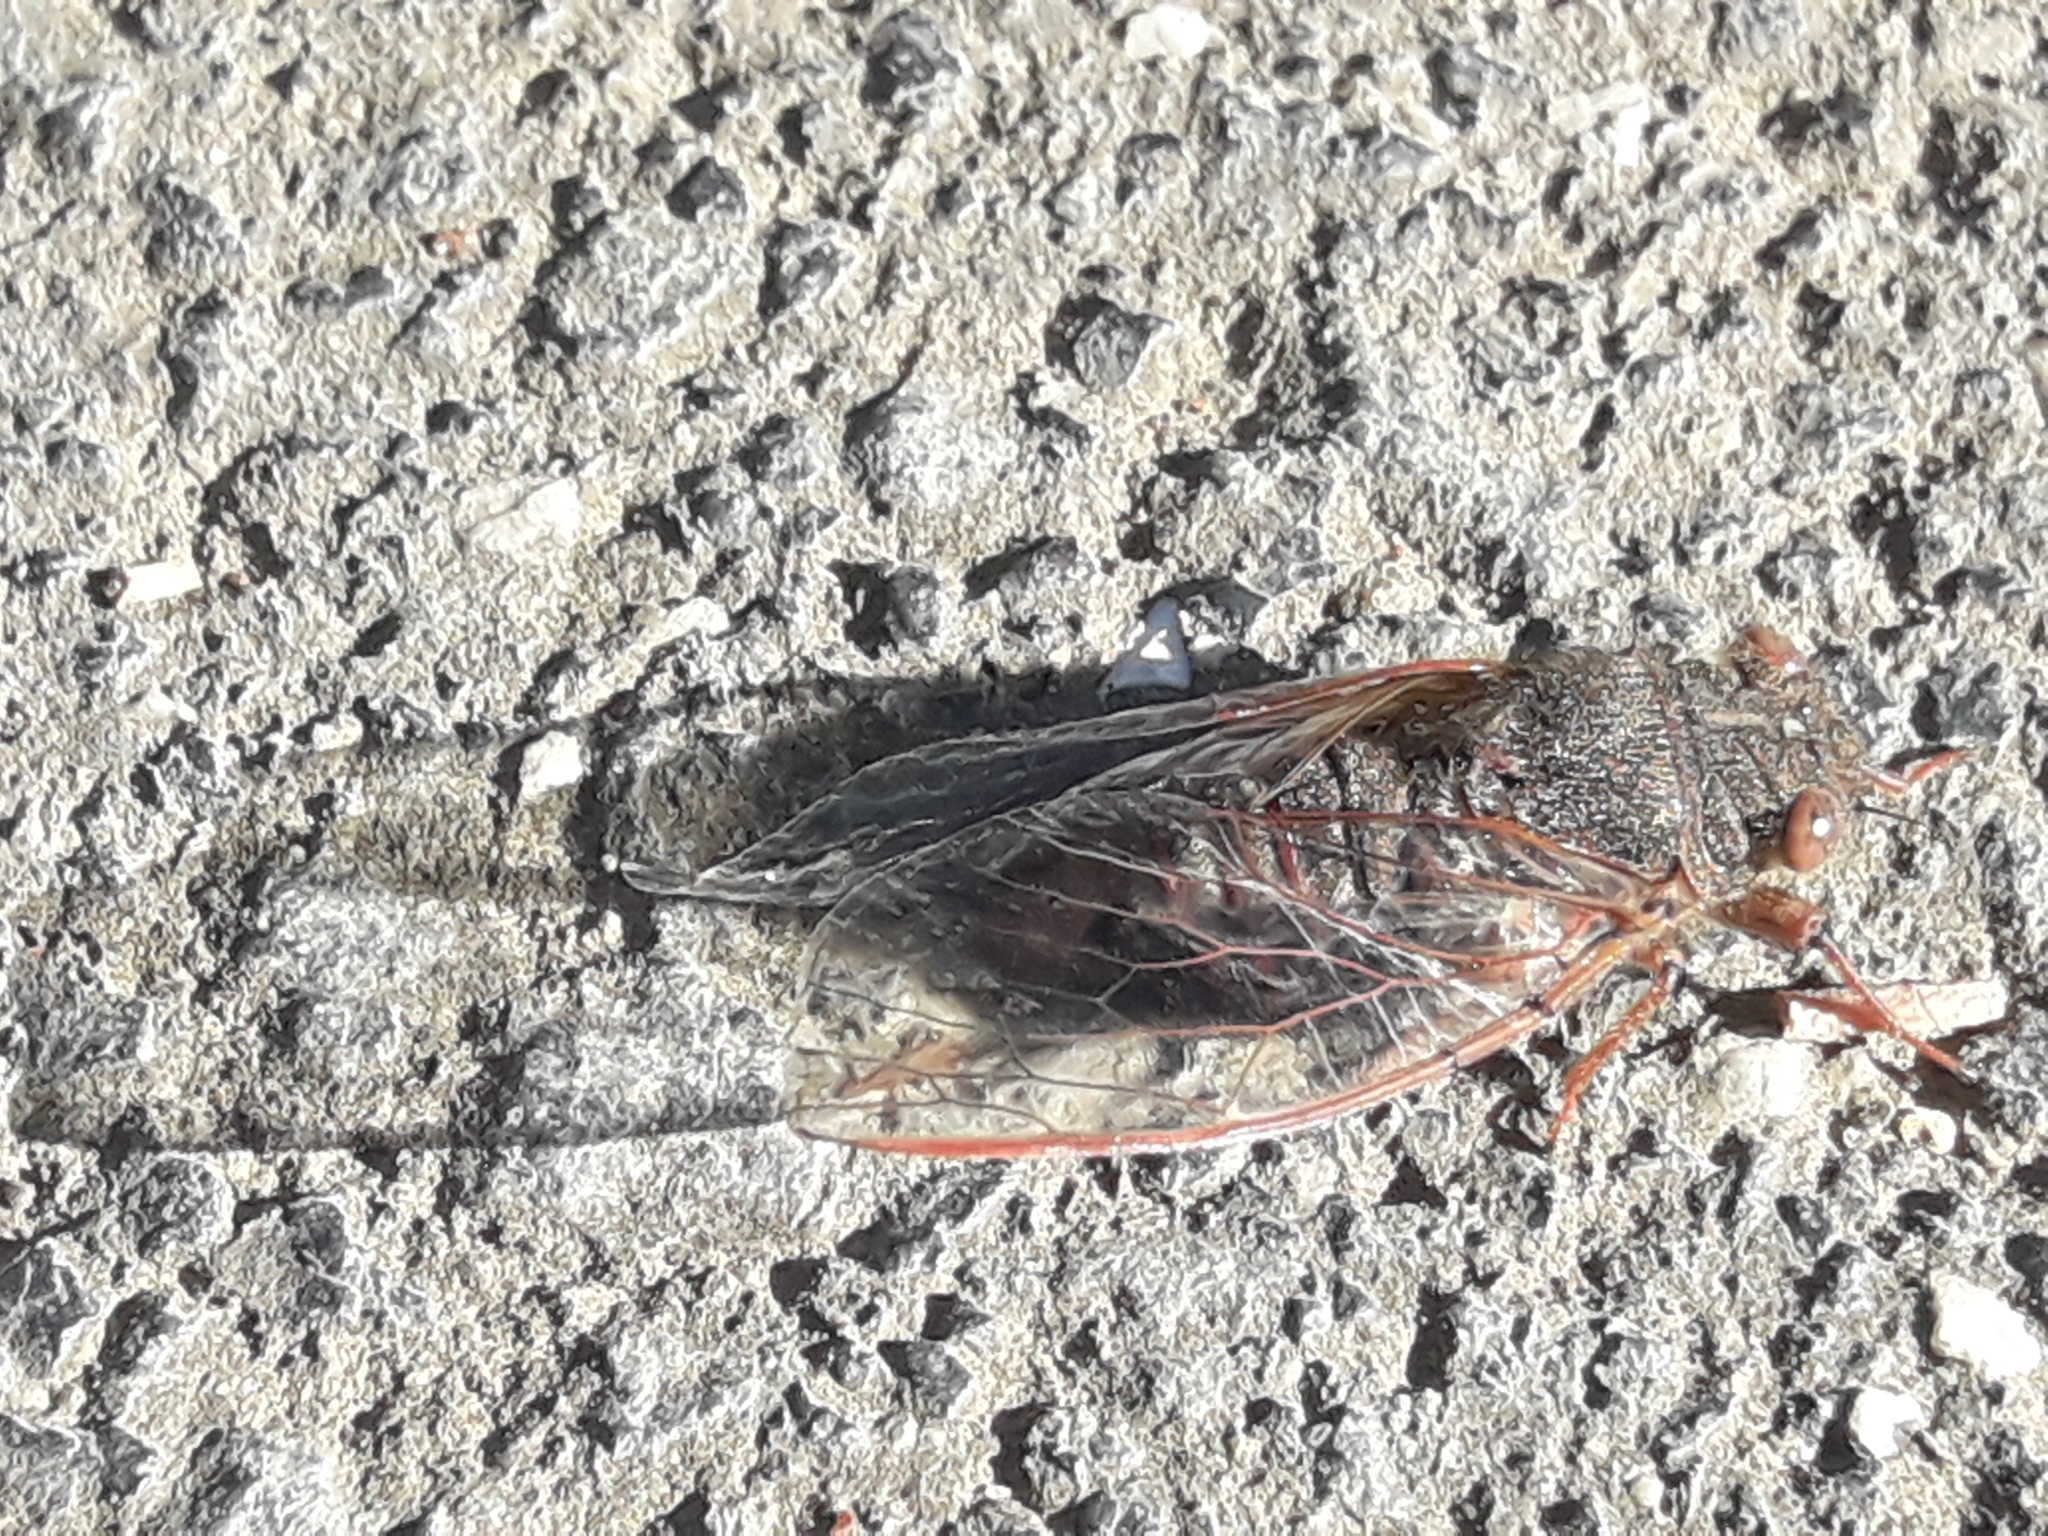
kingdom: Animalia
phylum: Arthropoda
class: Insecta
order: Hemiptera
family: Cicadidae
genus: Popplepsalta
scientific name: Popplepsalta rubristrigata
